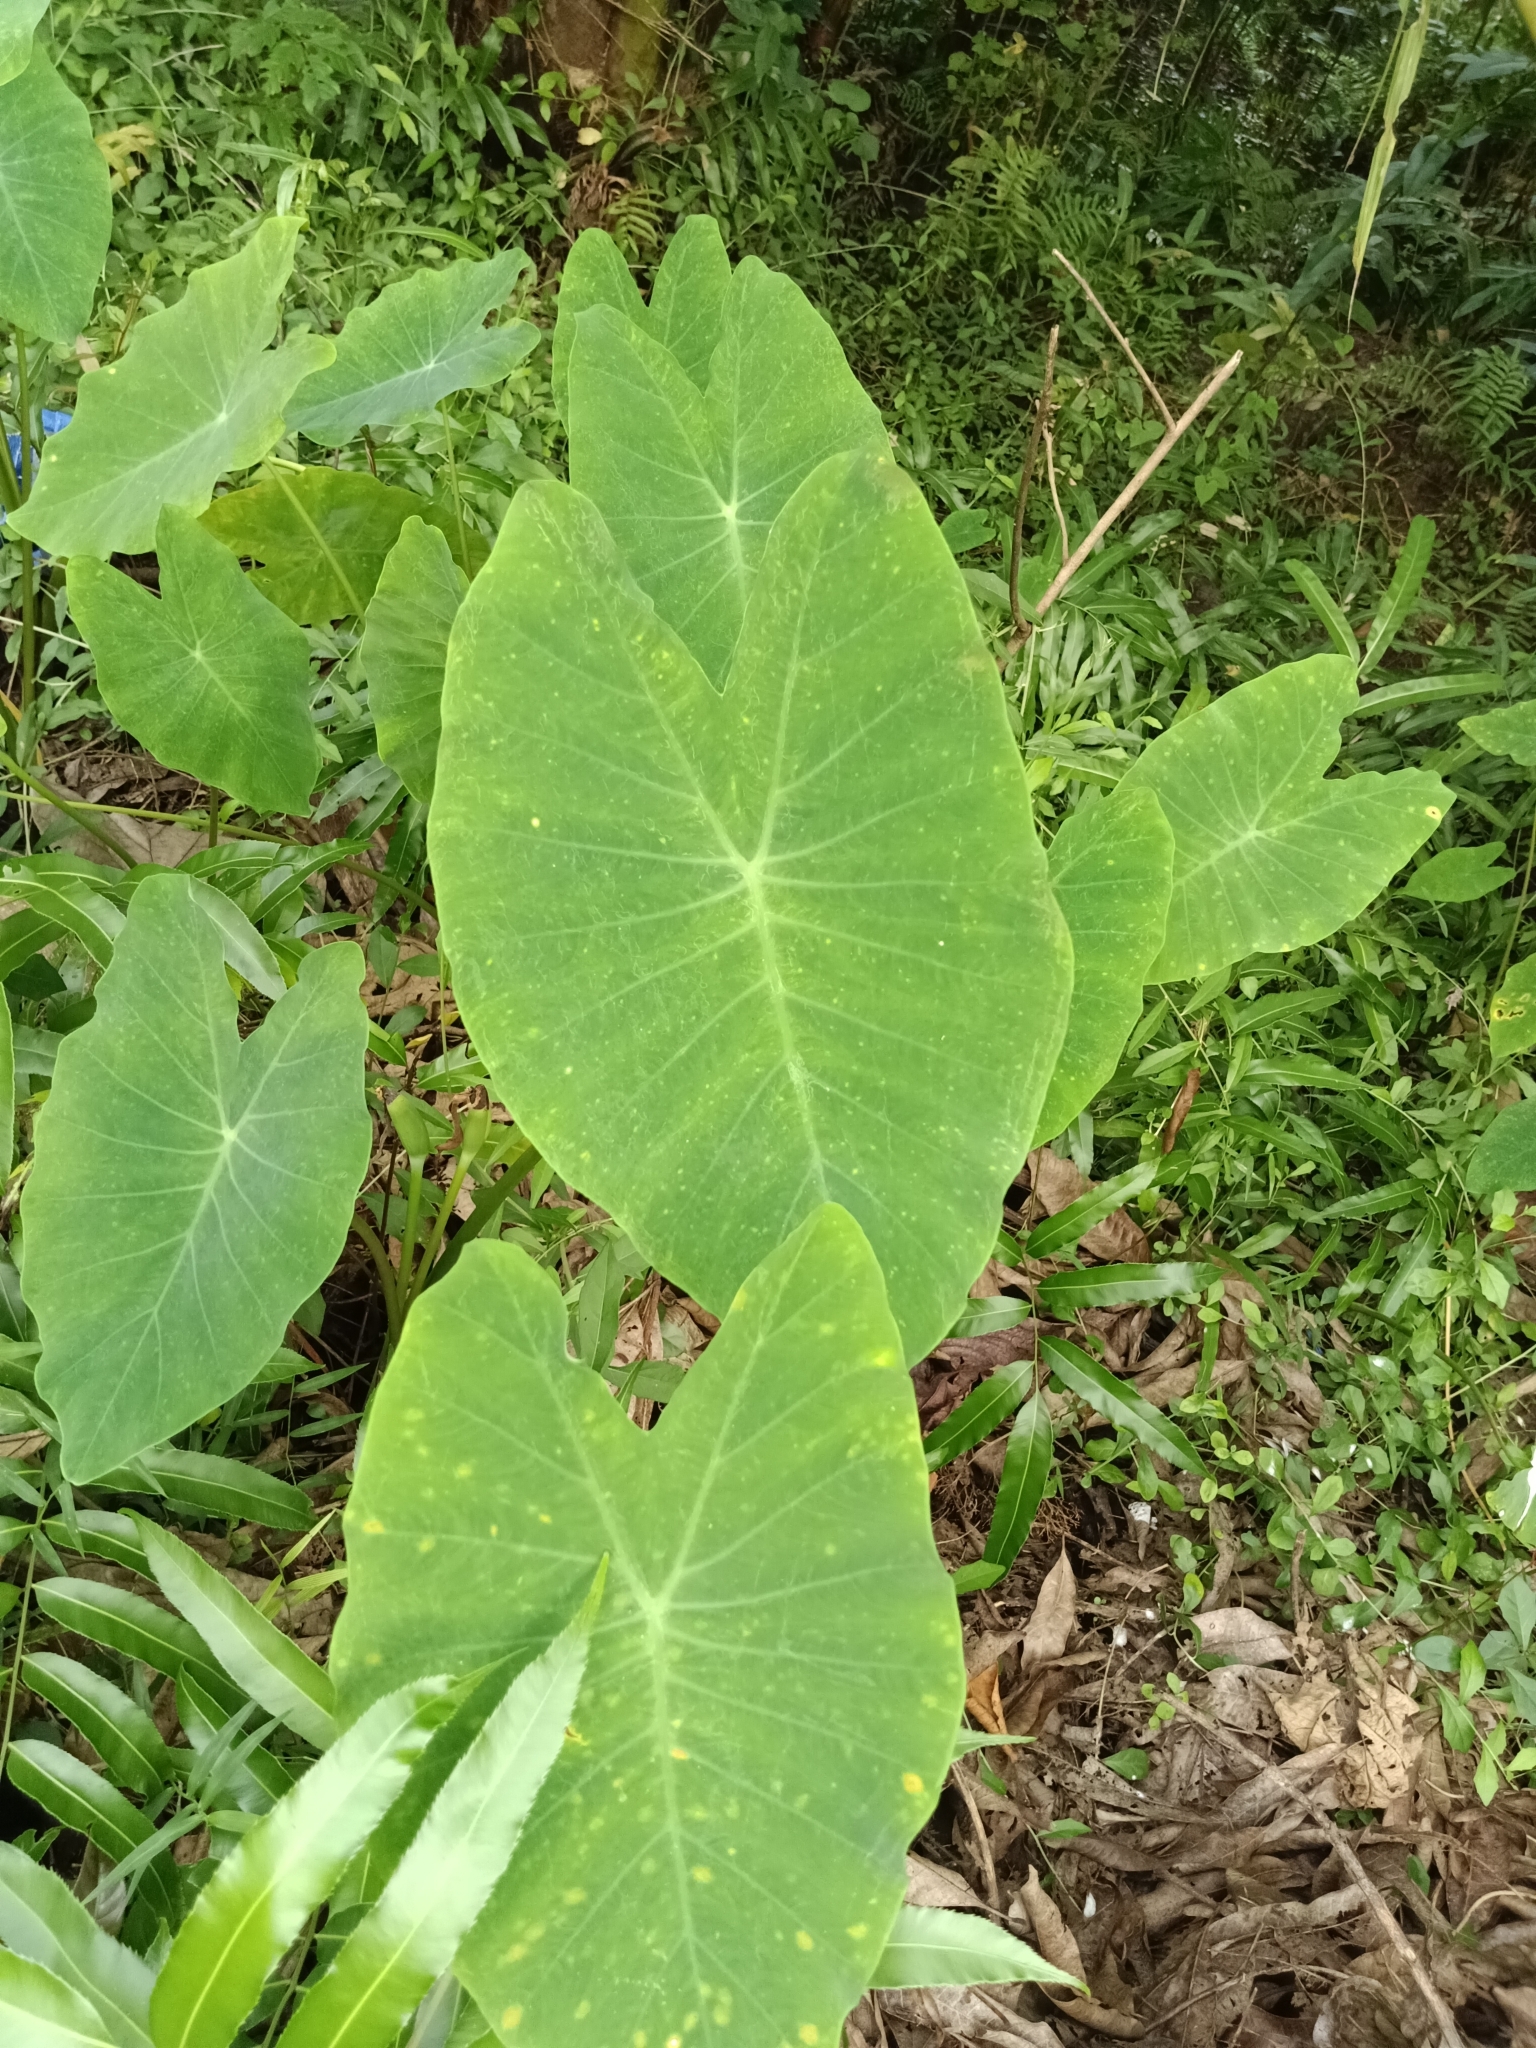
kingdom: Plantae
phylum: Tracheophyta
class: Liliopsida
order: Alismatales
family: Araceae
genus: Colocasia
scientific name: Colocasia esculenta
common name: Taro
